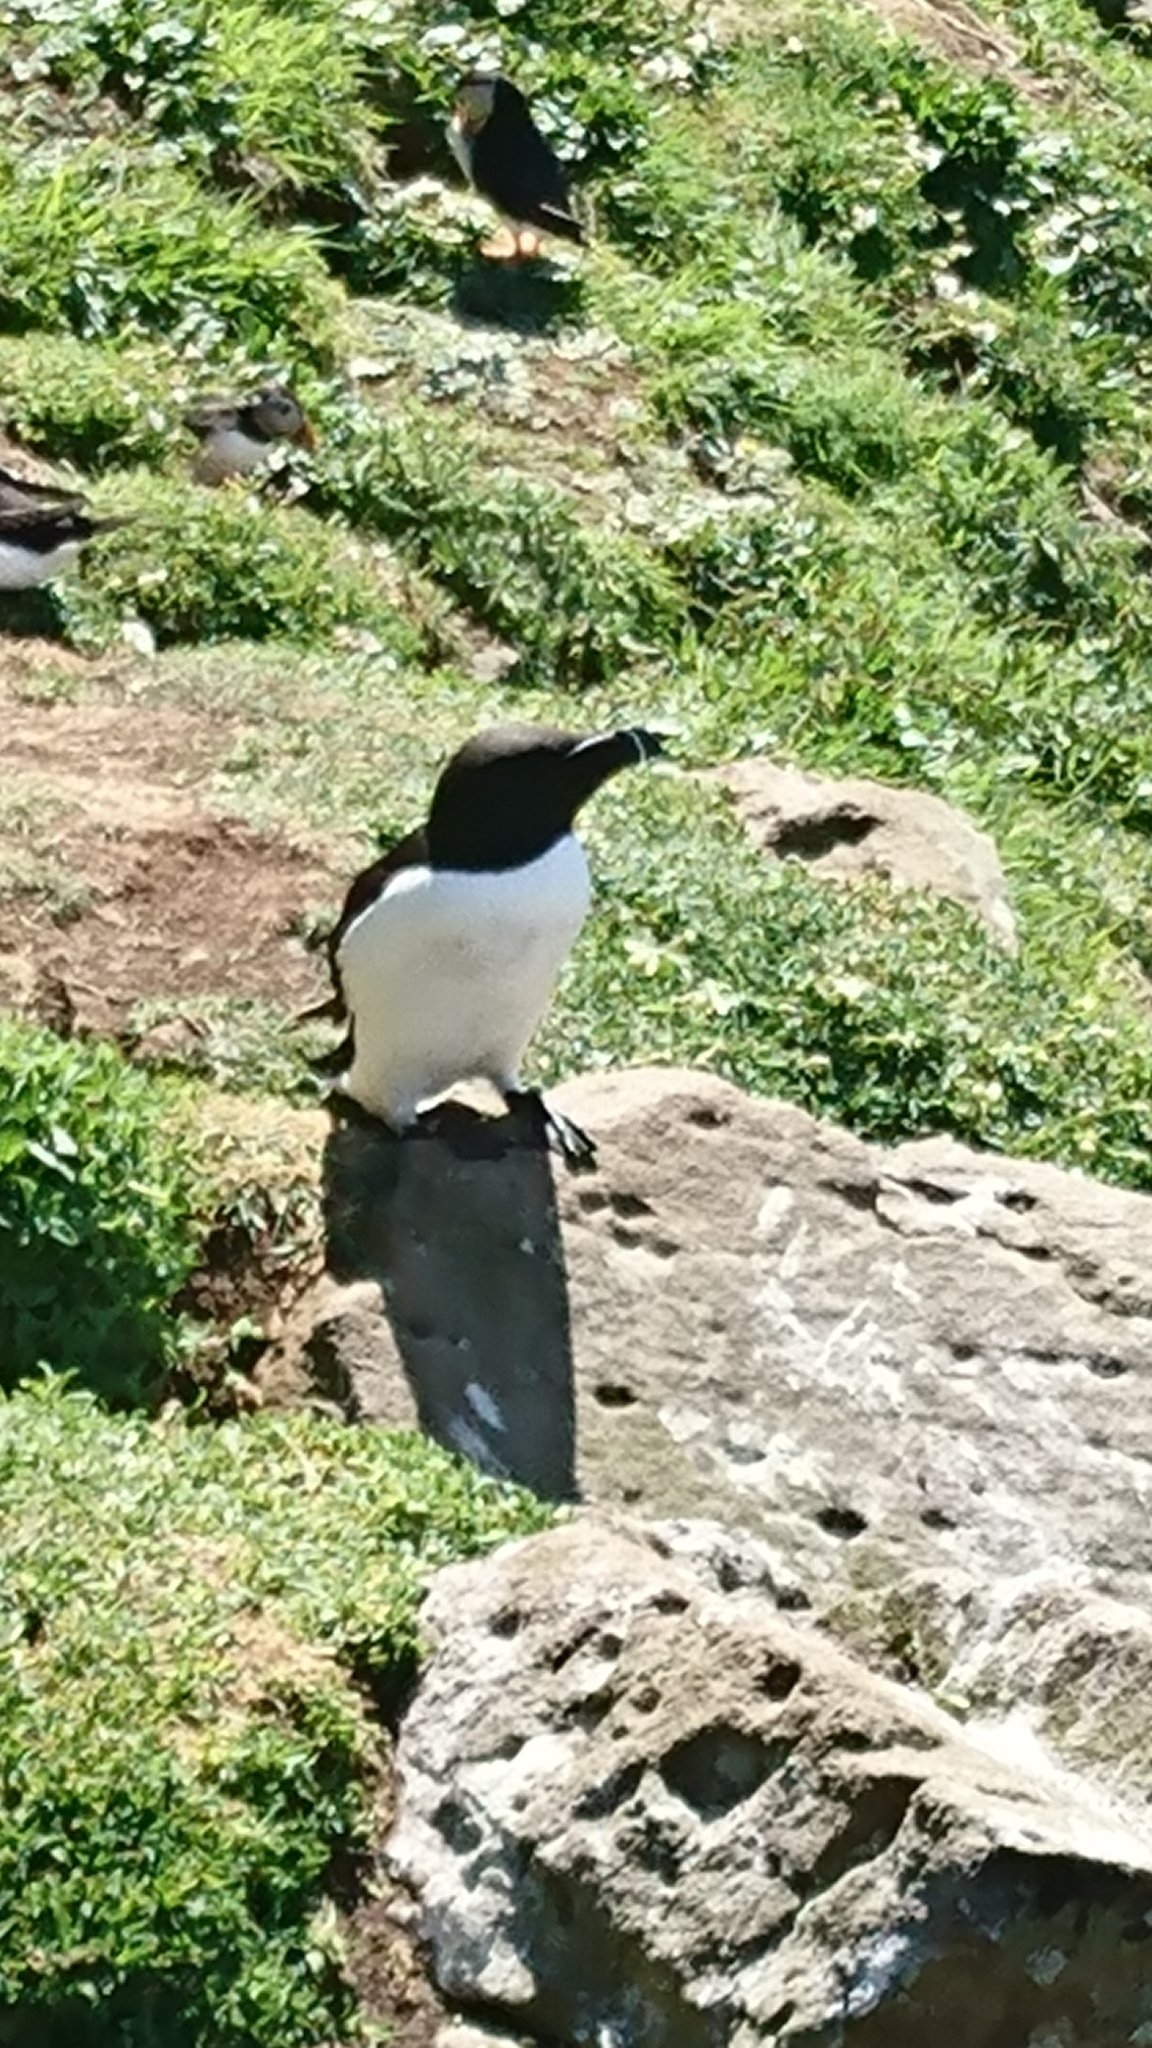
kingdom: Animalia
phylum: Chordata
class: Aves
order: Charadriiformes
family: Alcidae
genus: Alca
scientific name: Alca torda
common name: Razorbill
